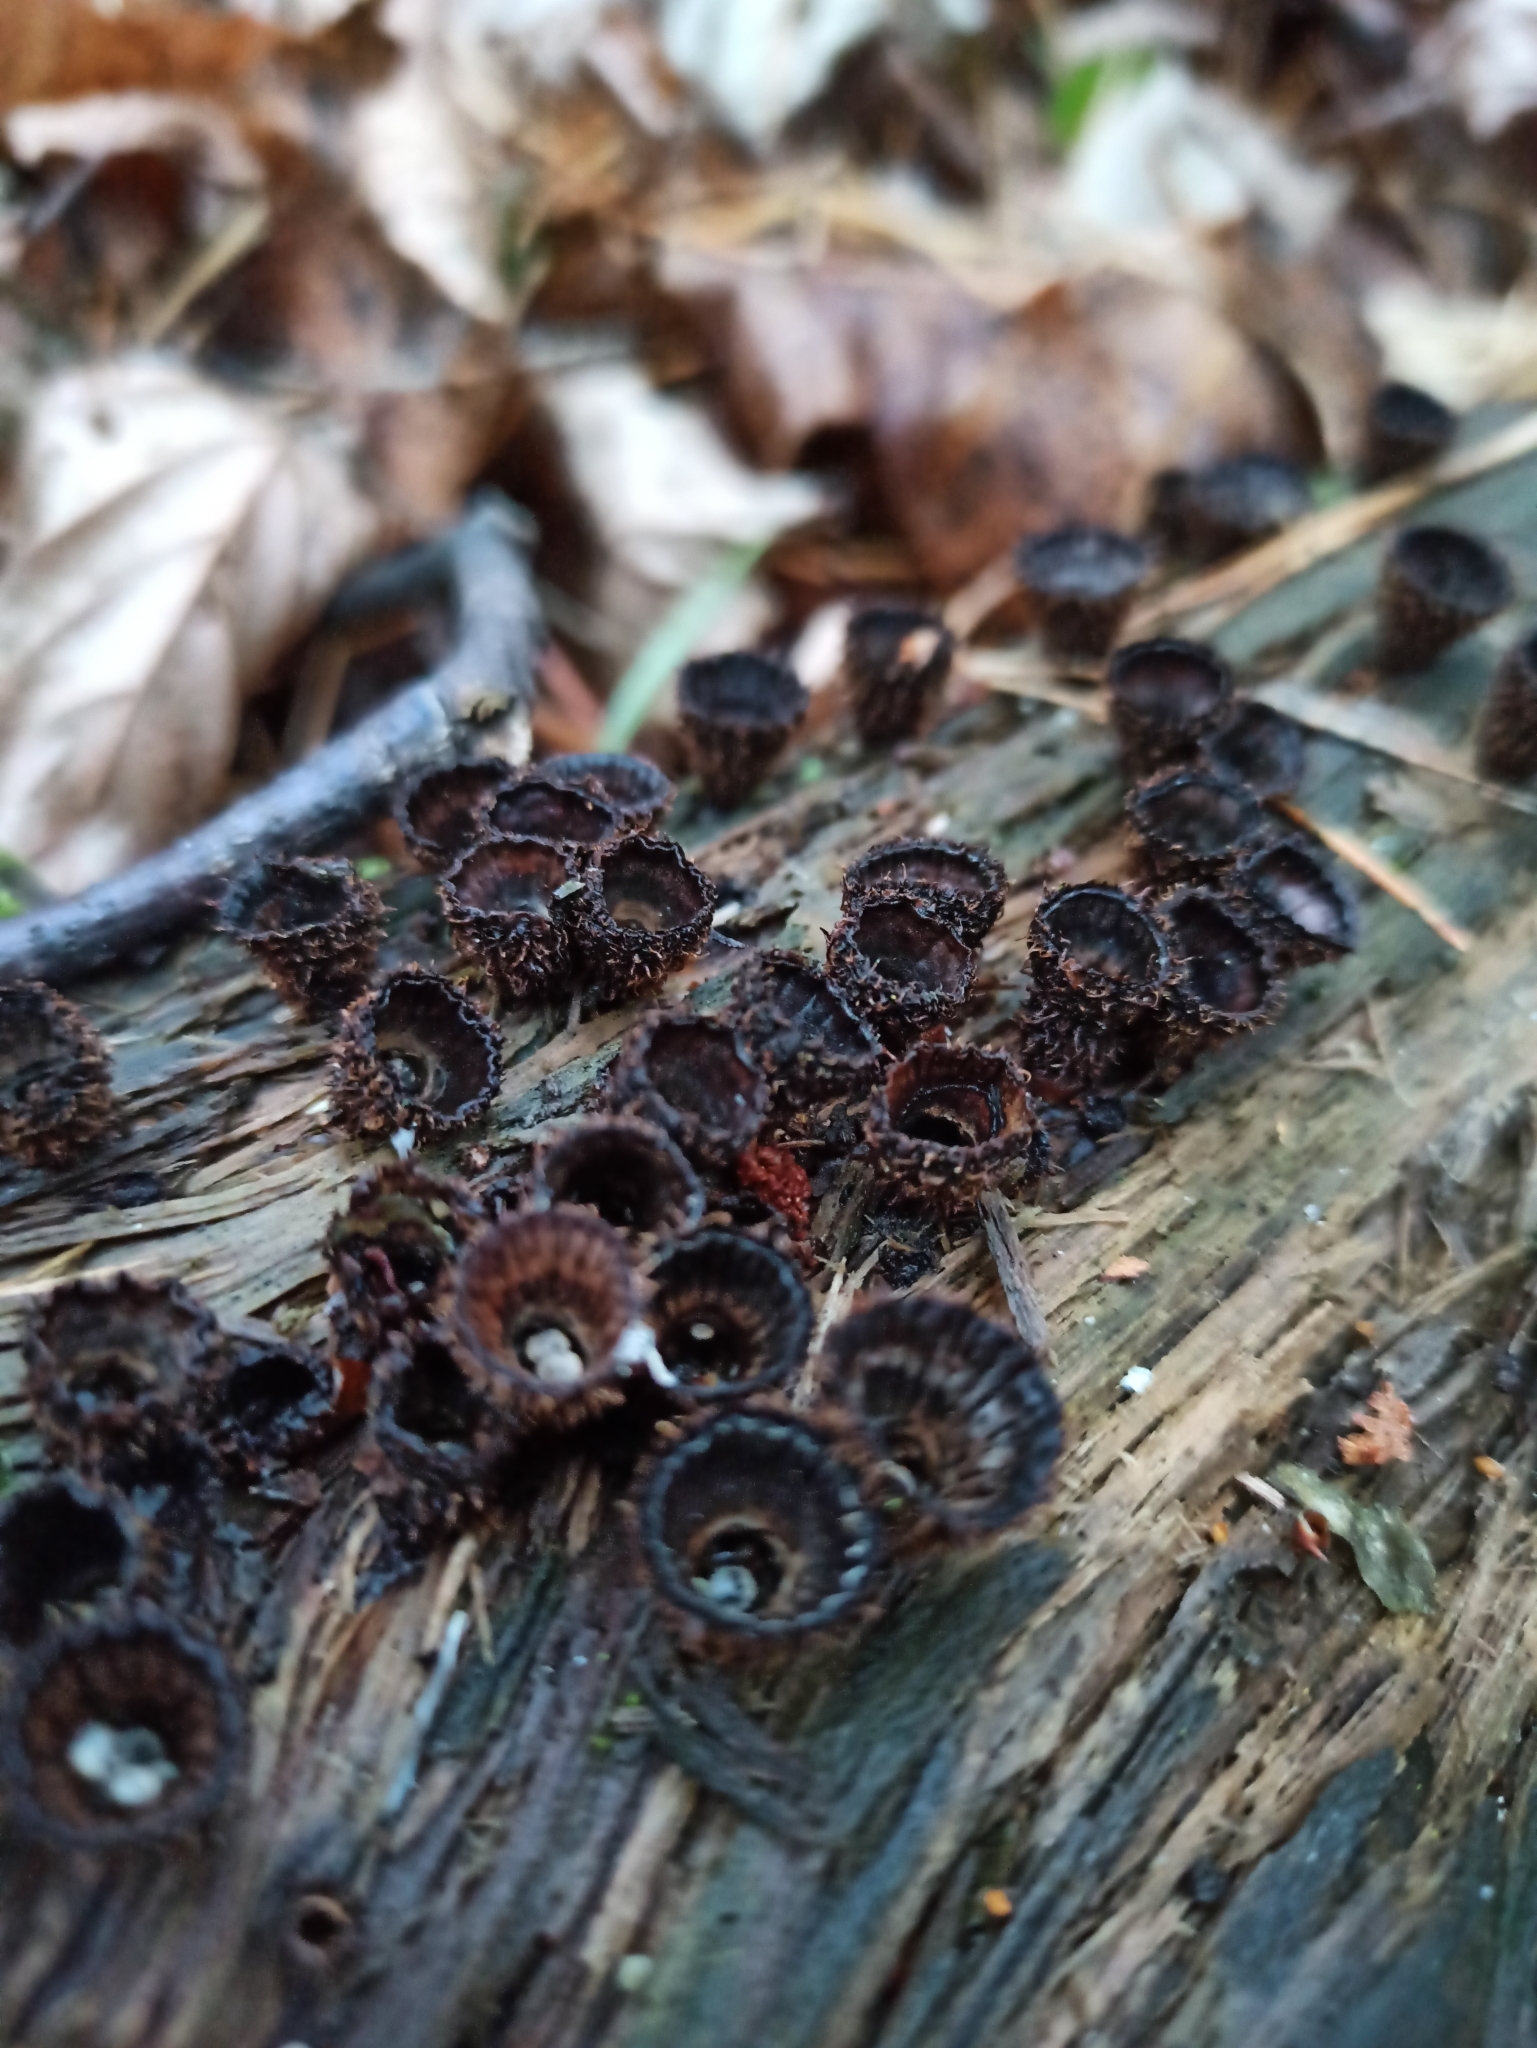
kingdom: Fungi
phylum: Basidiomycota
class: Agaricomycetes
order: Agaricales
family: Agaricaceae
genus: Cyathus
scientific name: Cyathus striatus
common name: Fluted bird's nest
